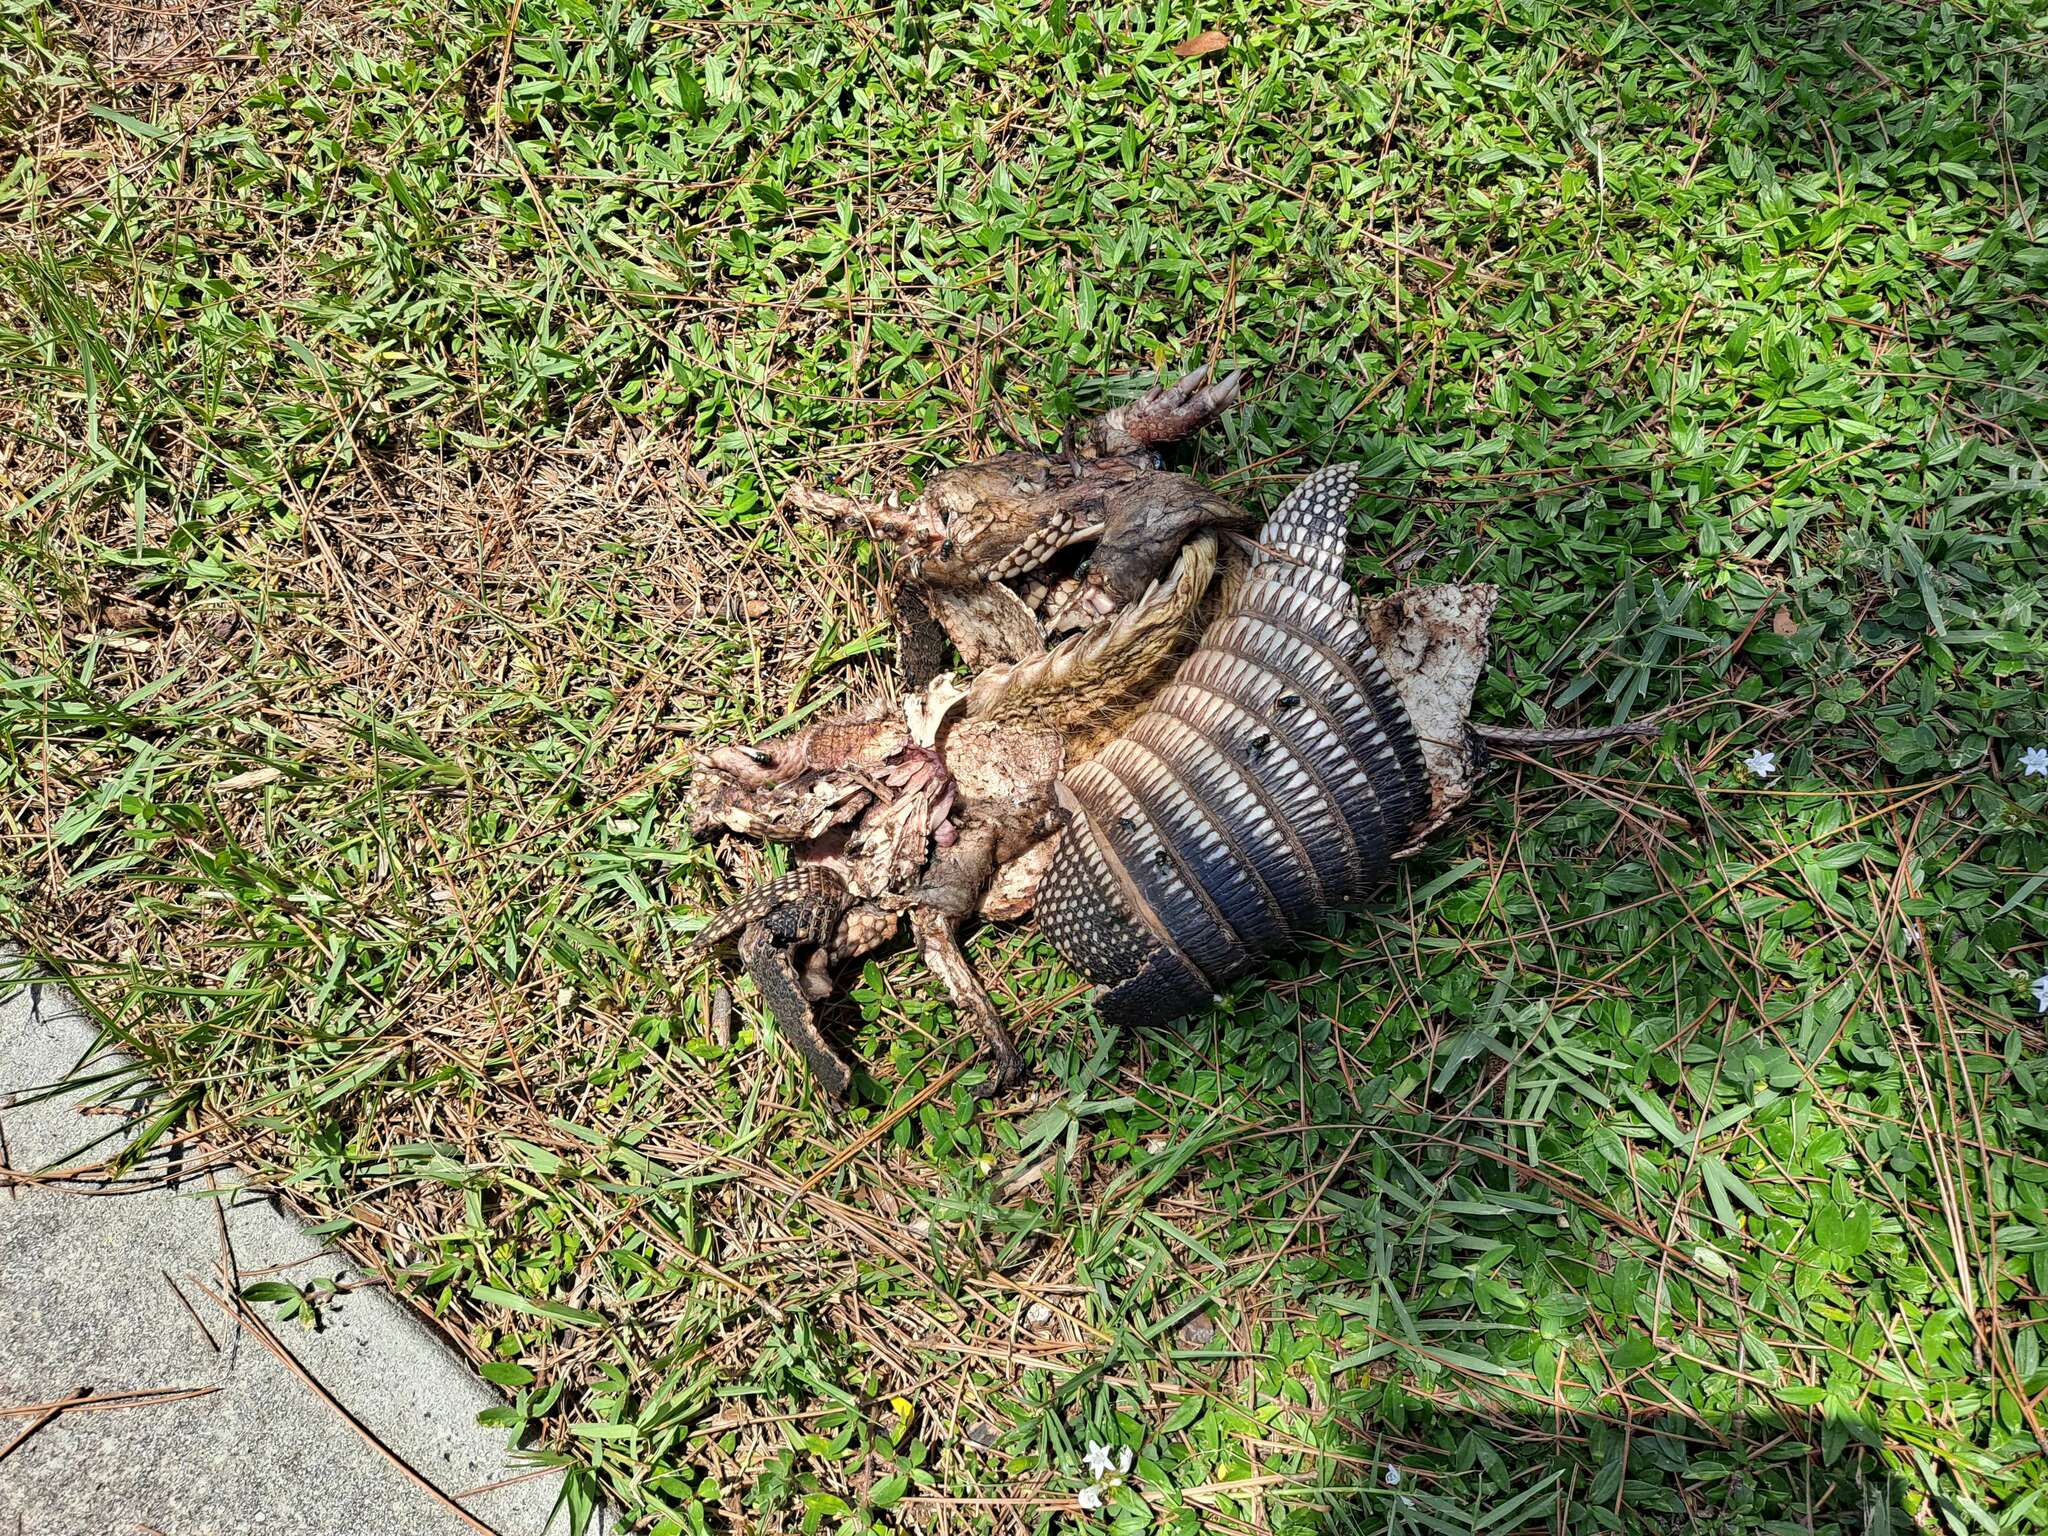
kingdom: Animalia
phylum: Chordata
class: Mammalia
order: Cingulata
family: Dasypodidae
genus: Dasypus
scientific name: Dasypus novemcinctus
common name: Nine-banded armadillo
